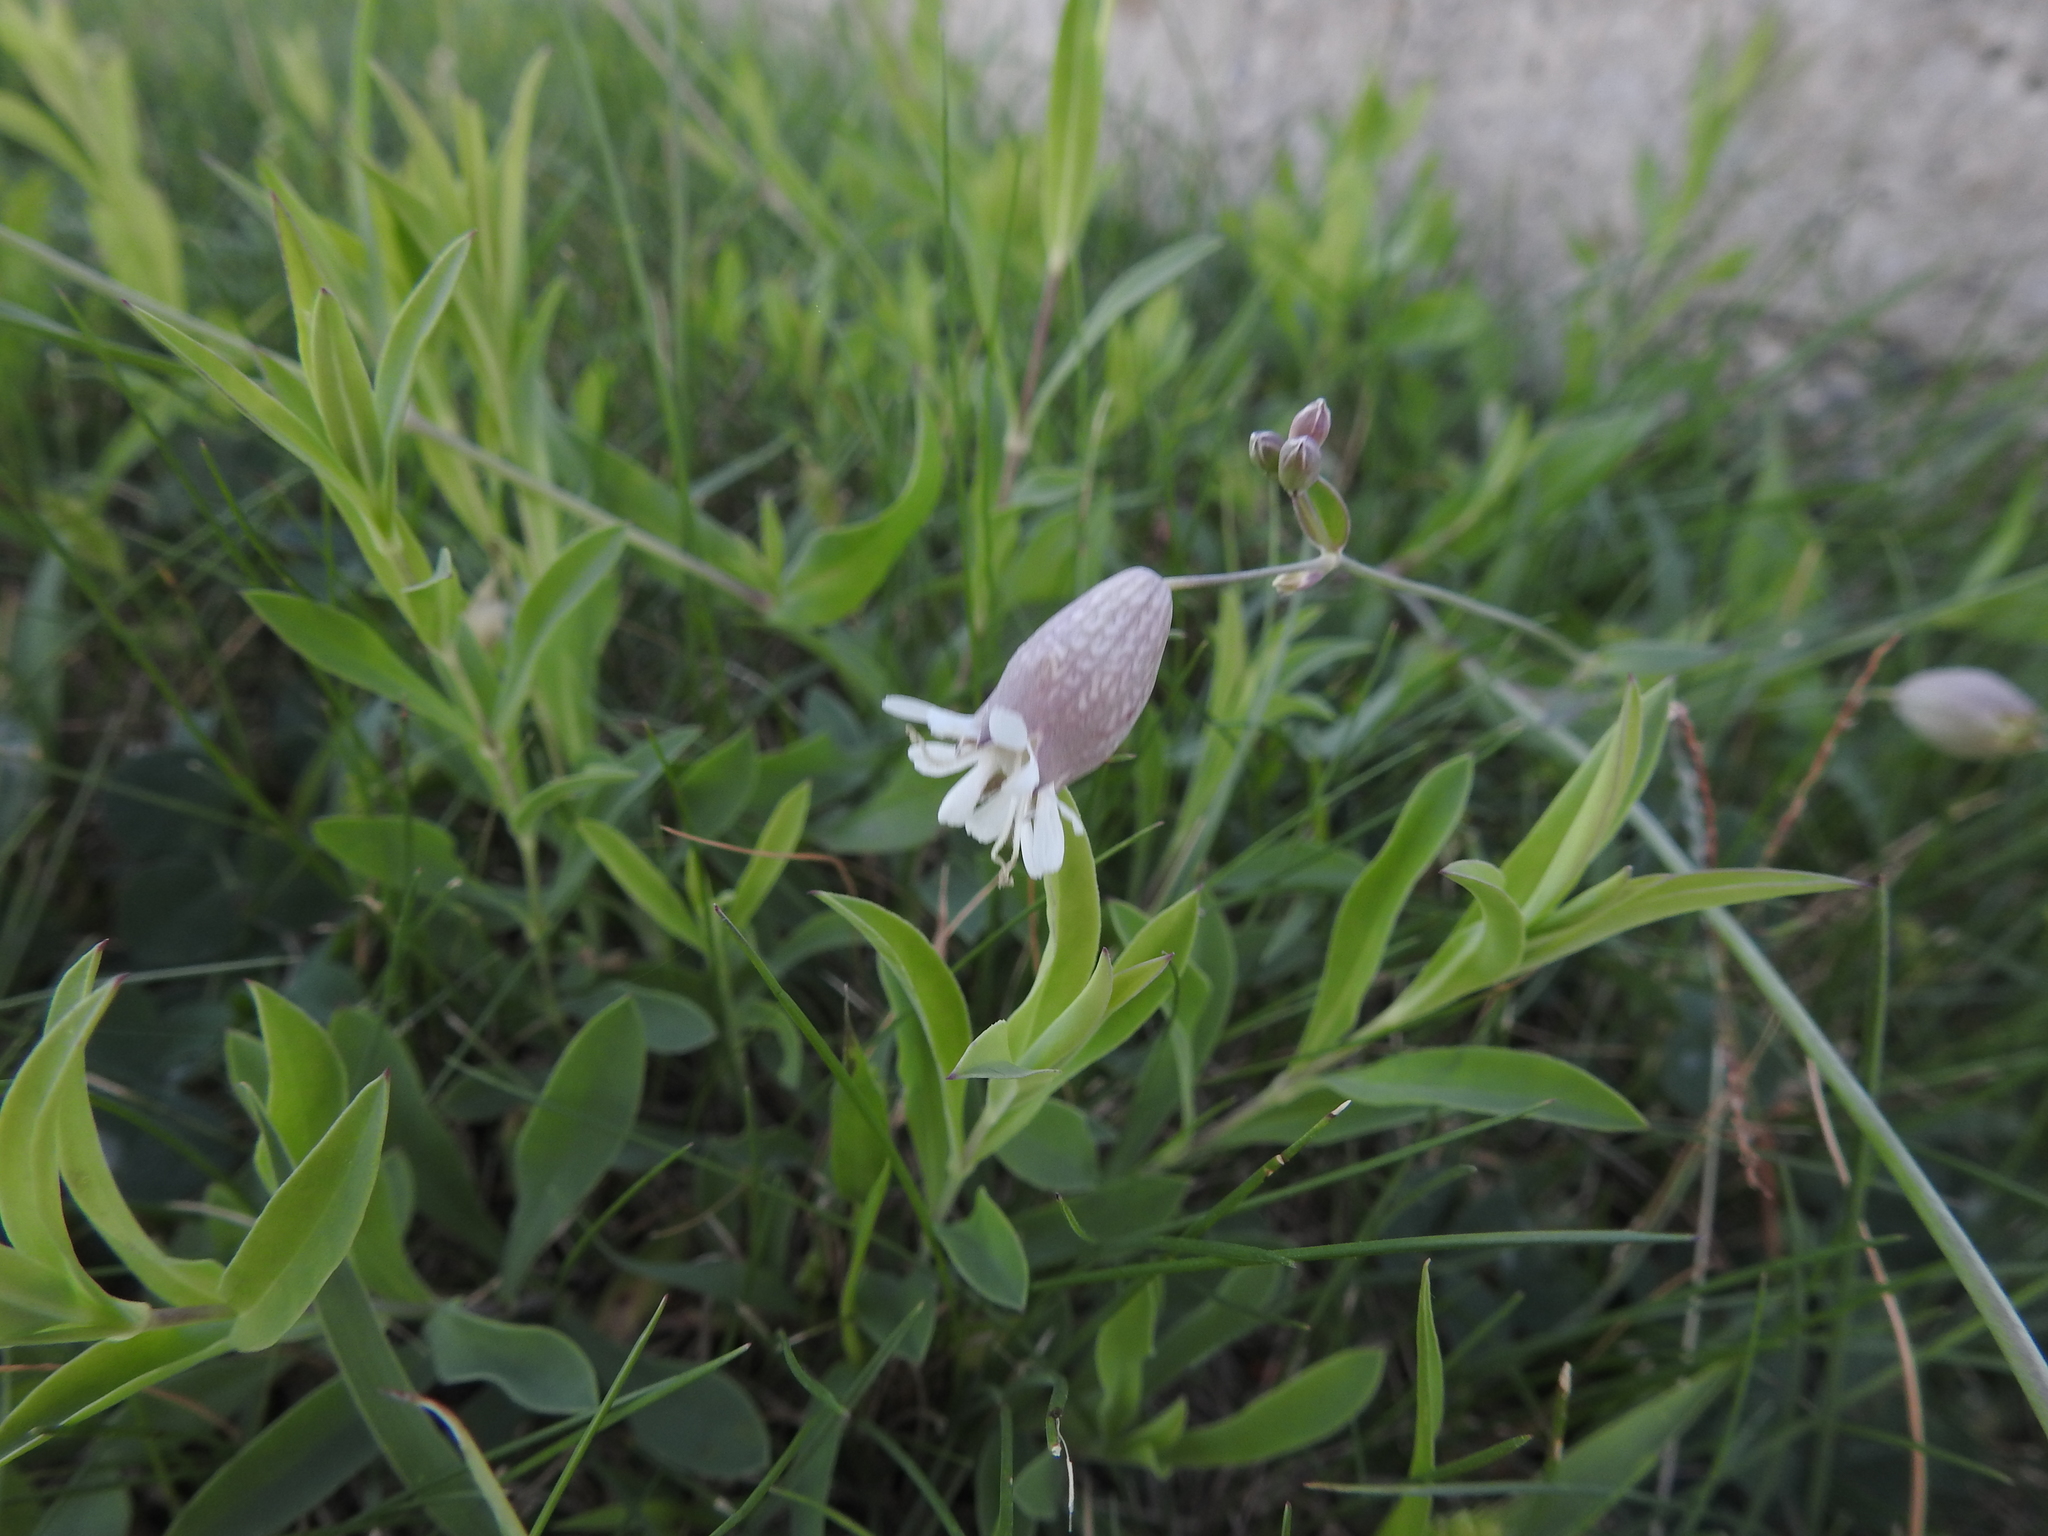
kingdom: Plantae
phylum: Tracheophyta
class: Magnoliopsida
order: Caryophyllales
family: Caryophyllaceae
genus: Silene
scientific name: Silene vulgaris
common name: Bladder campion
